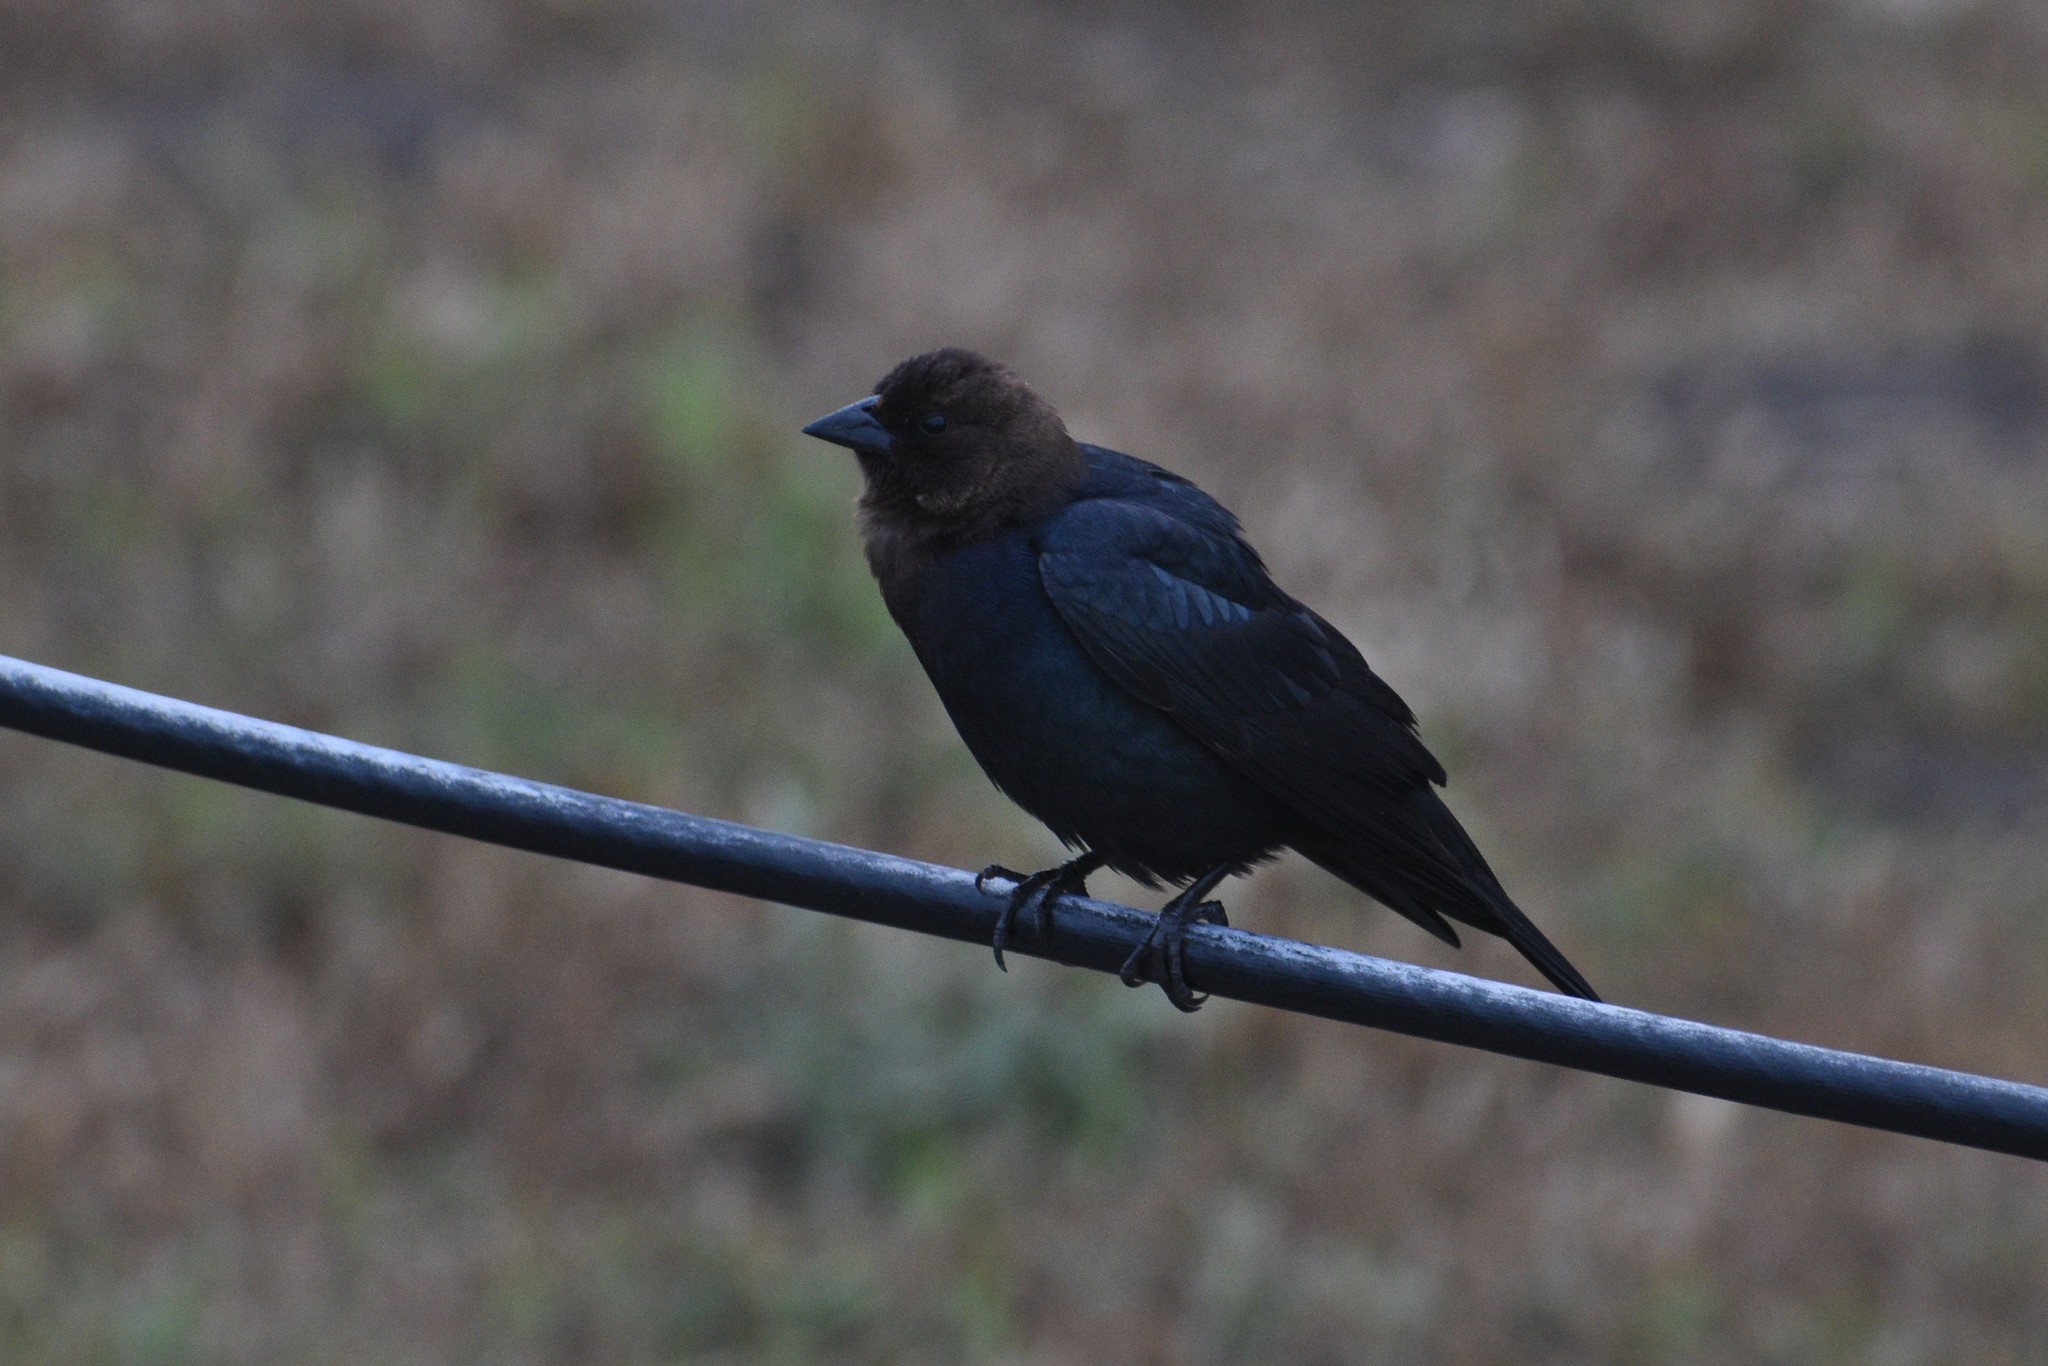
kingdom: Animalia
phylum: Chordata
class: Aves
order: Passeriformes
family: Icteridae
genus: Molothrus
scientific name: Molothrus ater
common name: Brown-headed cowbird
